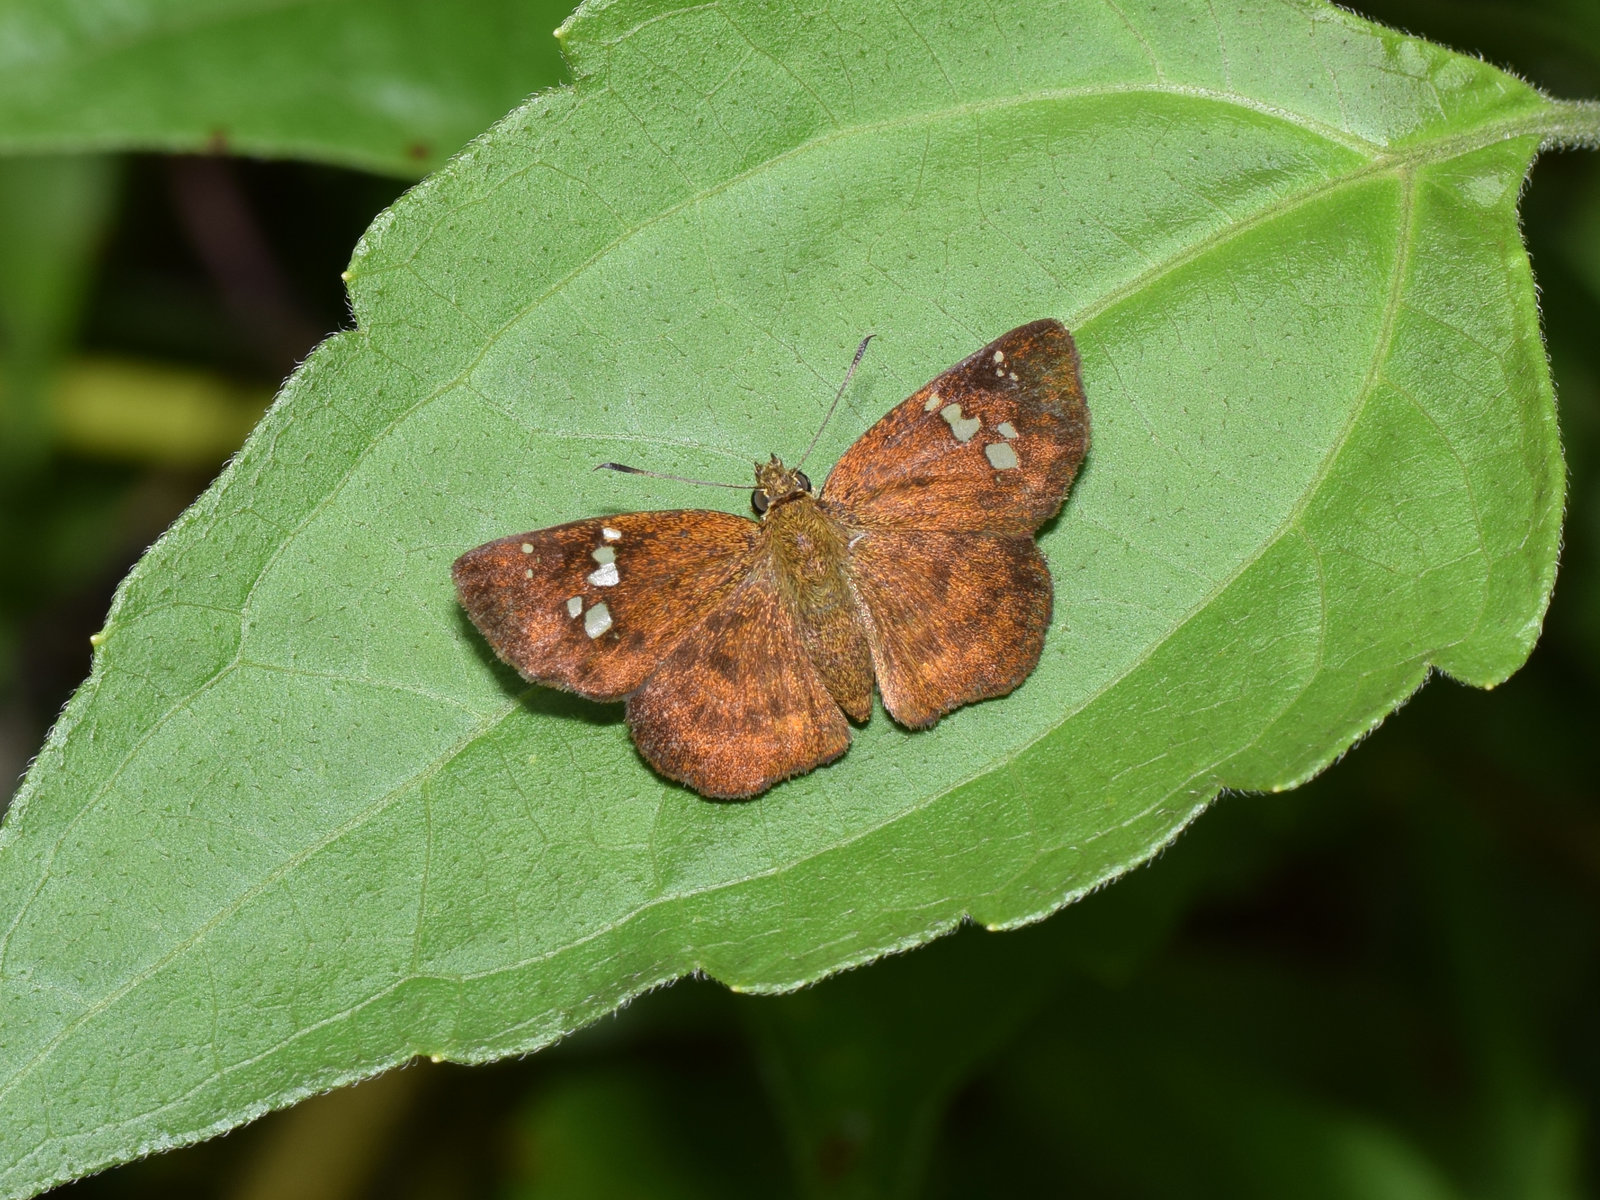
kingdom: Animalia
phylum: Arthropoda
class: Insecta
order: Lepidoptera
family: Hesperiidae
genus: Pseudocoladenia
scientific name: Pseudocoladenia dan
